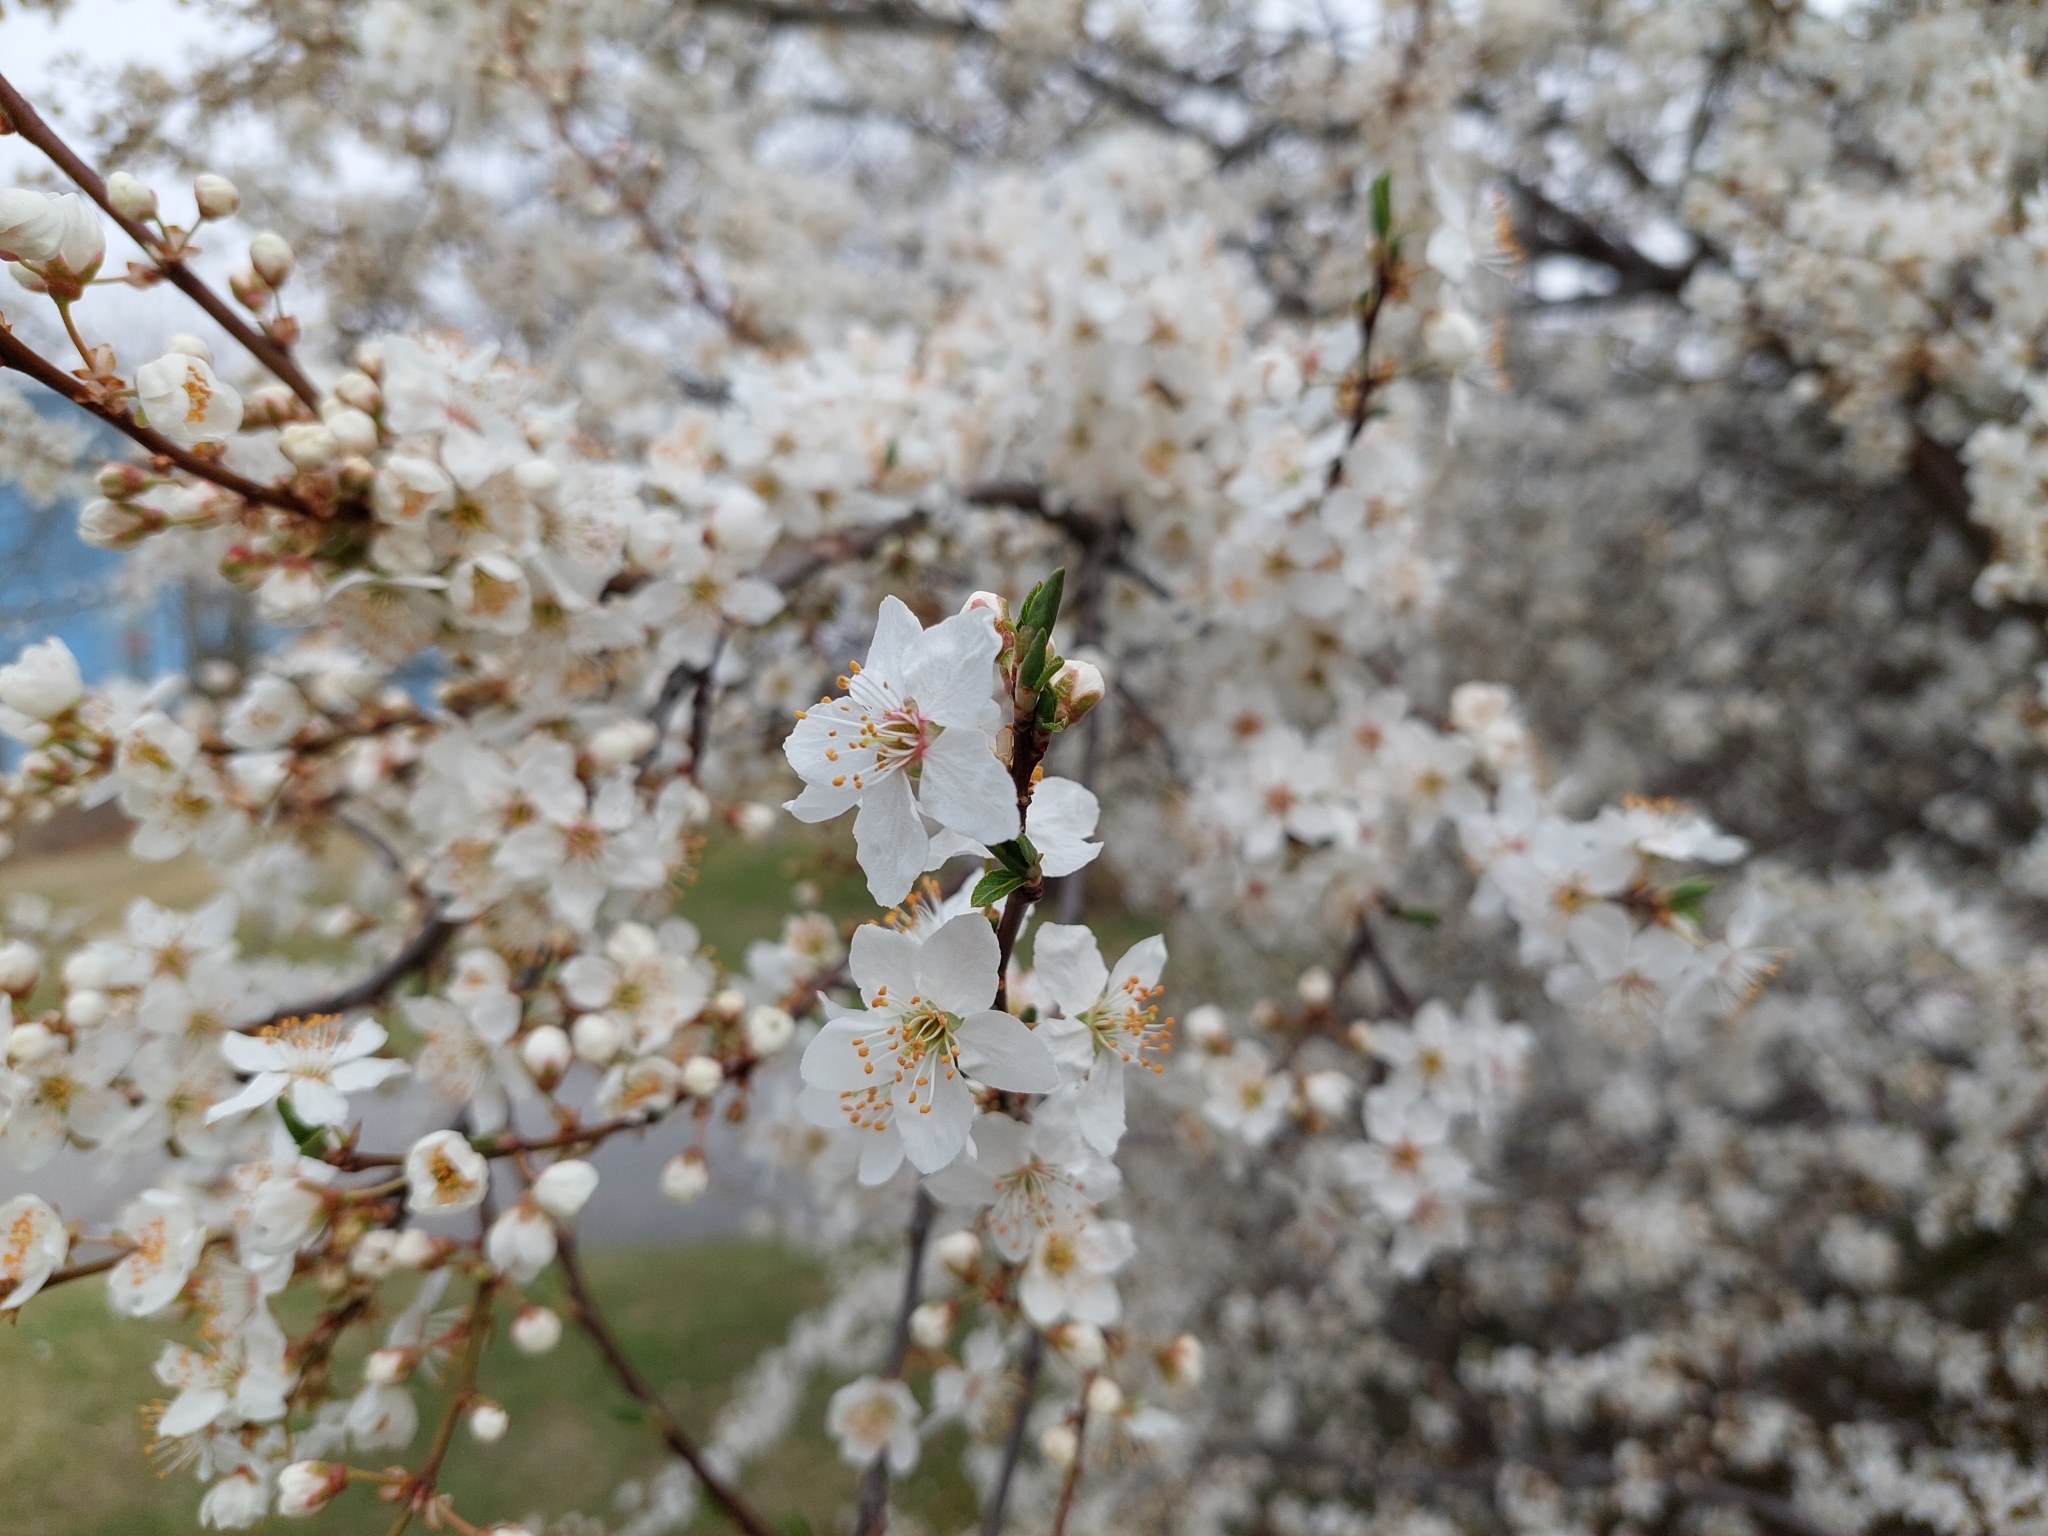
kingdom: Plantae
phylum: Tracheophyta
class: Magnoliopsida
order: Rosales
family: Rosaceae
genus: Prunus
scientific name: Prunus cerasifera
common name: Cherry plum
